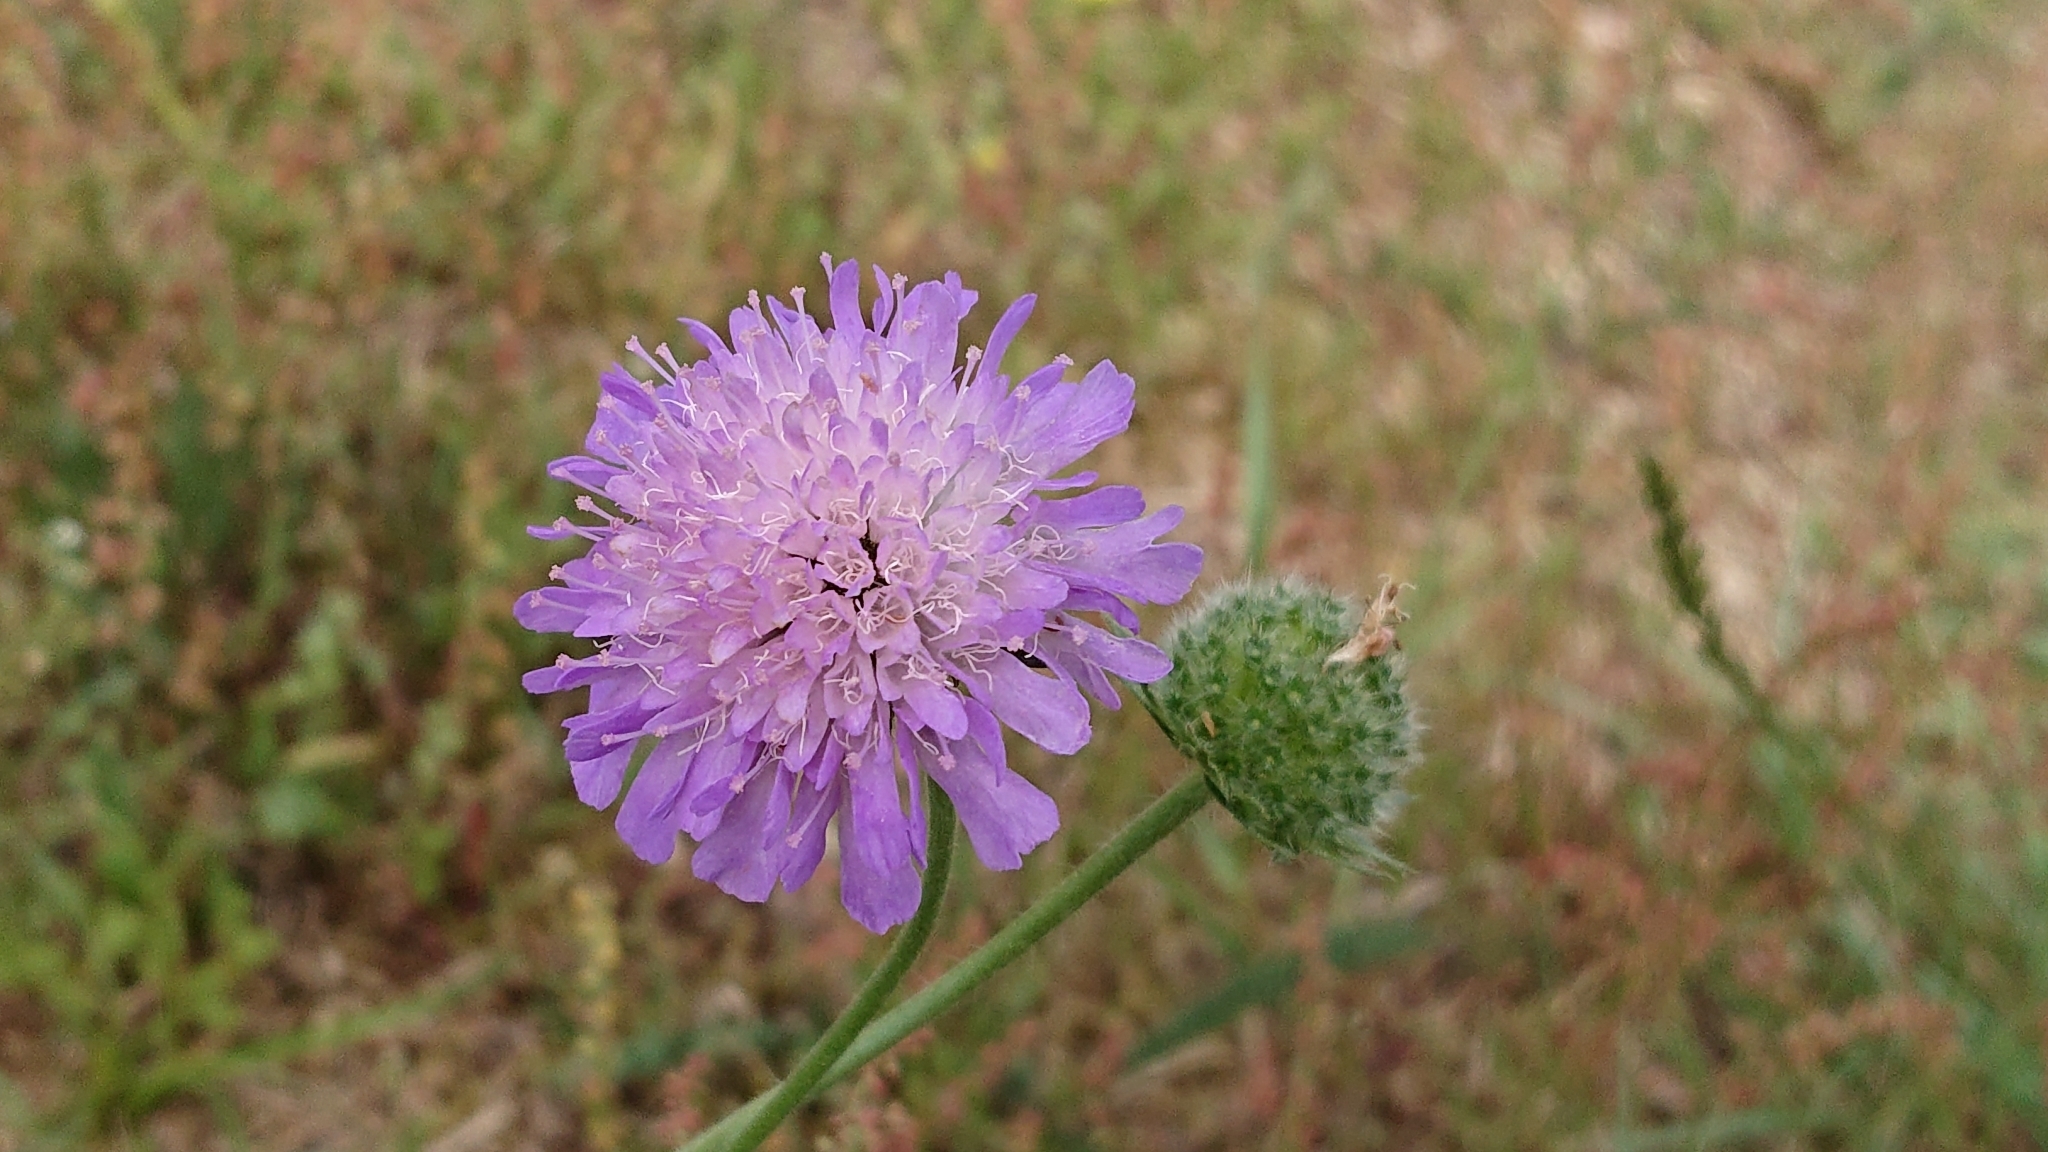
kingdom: Plantae
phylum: Tracheophyta
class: Magnoliopsida
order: Dipsacales
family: Caprifoliaceae
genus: Knautia
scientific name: Knautia arvensis
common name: Field scabiosa
